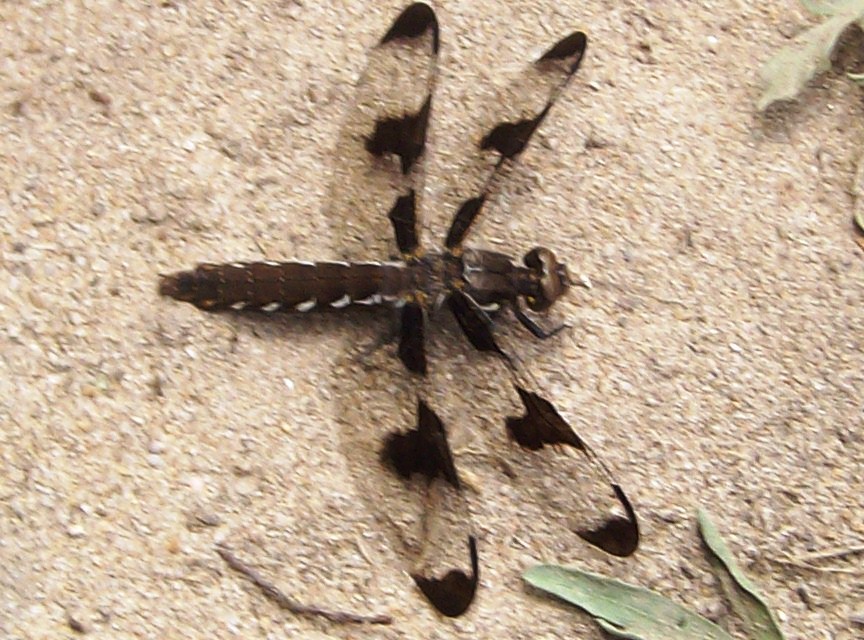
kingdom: Animalia
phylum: Arthropoda
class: Insecta
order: Odonata
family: Libellulidae
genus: Plathemis
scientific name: Plathemis lydia
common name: Common whitetail
